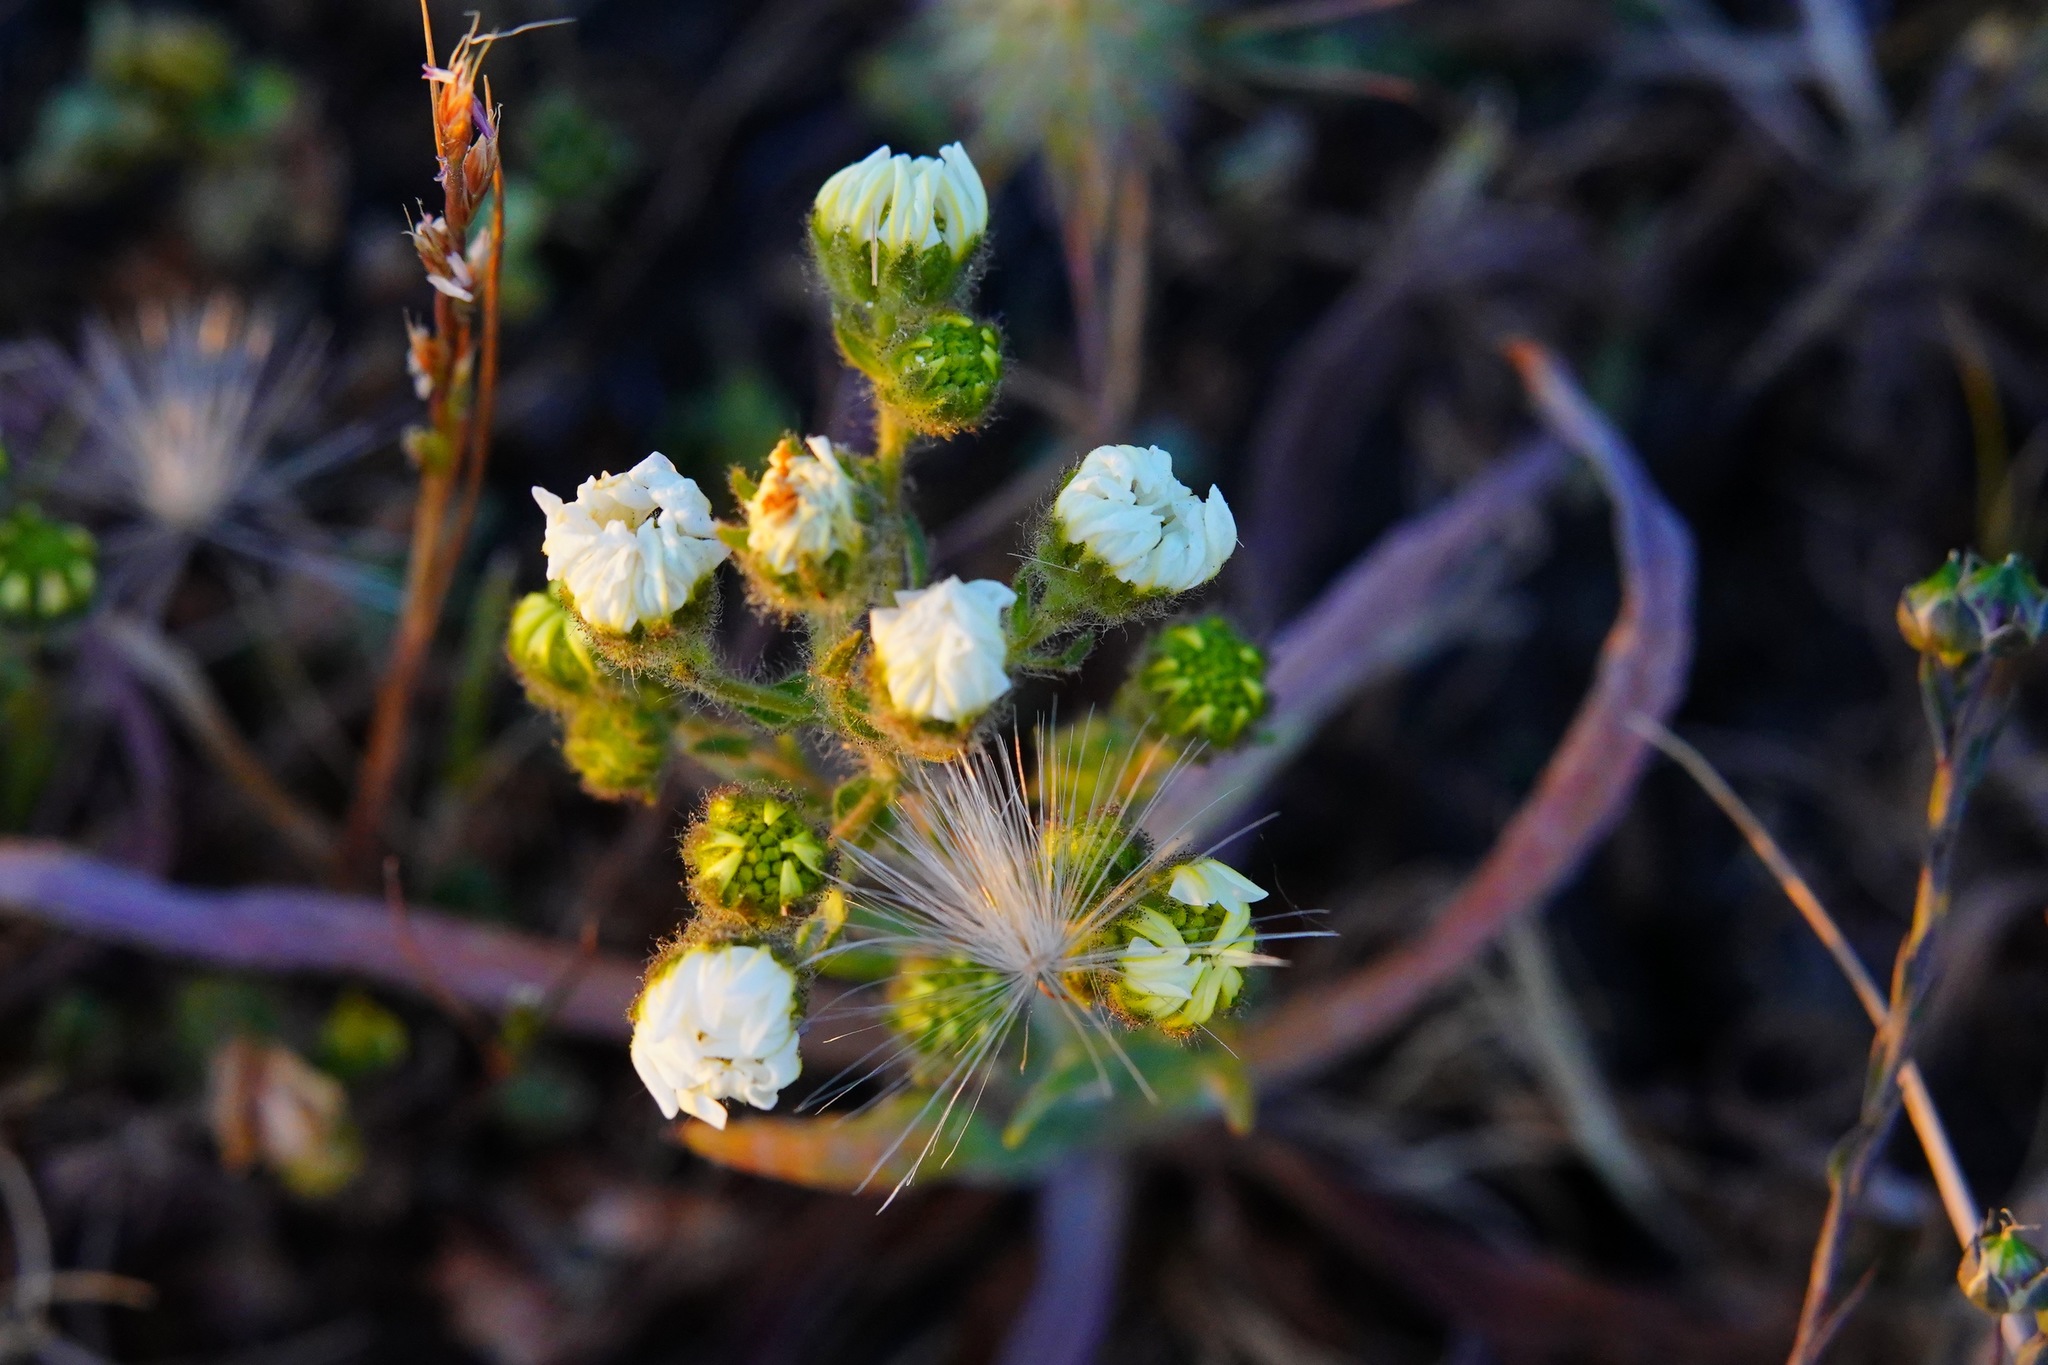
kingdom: Plantae
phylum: Tracheophyta
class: Magnoliopsida
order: Asterales
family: Asteraceae
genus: Hemizonia
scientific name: Hemizonia congesta
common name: Hayfield tarweed
